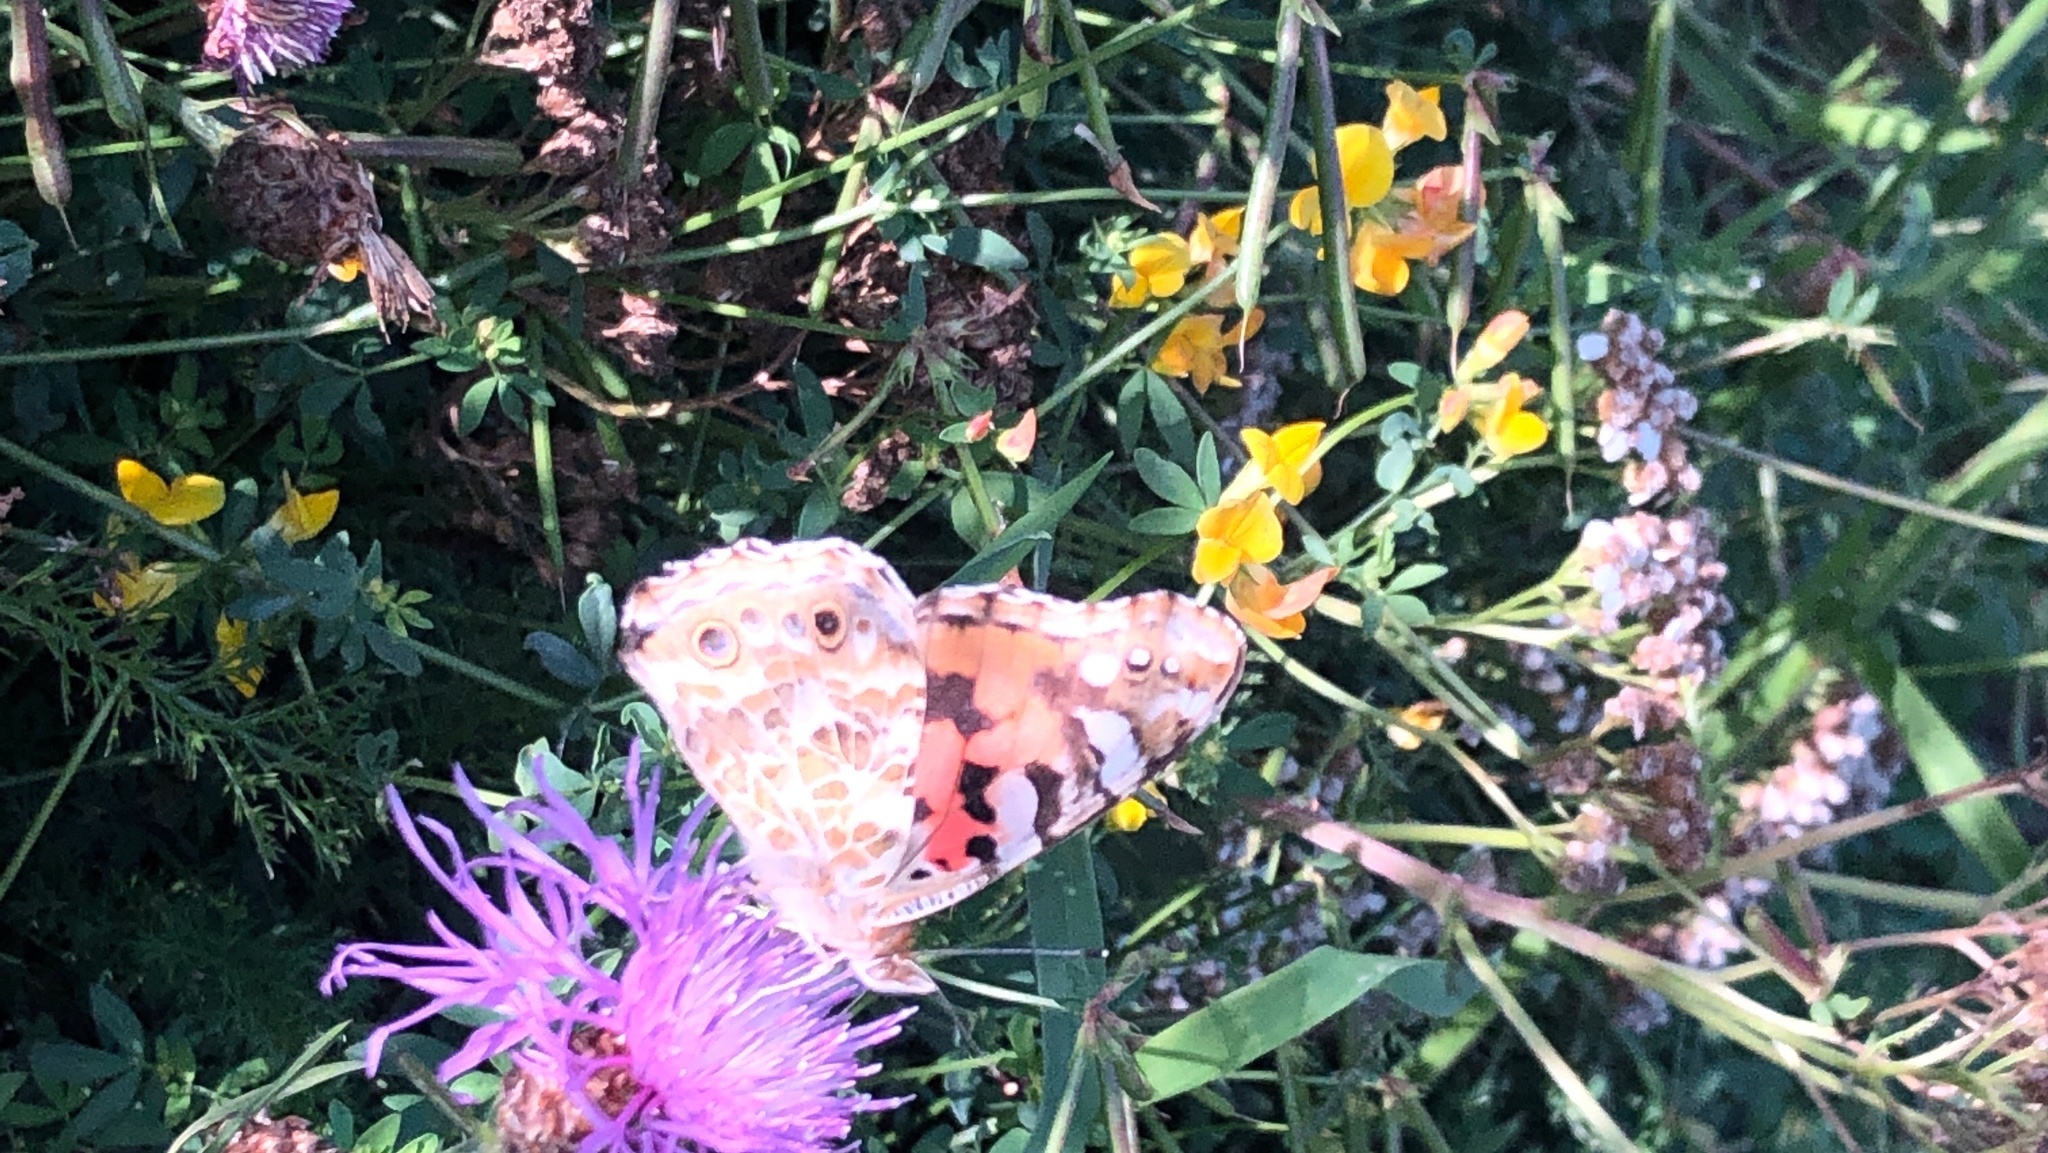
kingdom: Animalia
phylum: Arthropoda
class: Insecta
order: Lepidoptera
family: Nymphalidae
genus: Vanessa
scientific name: Vanessa cardui
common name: Painted lady
